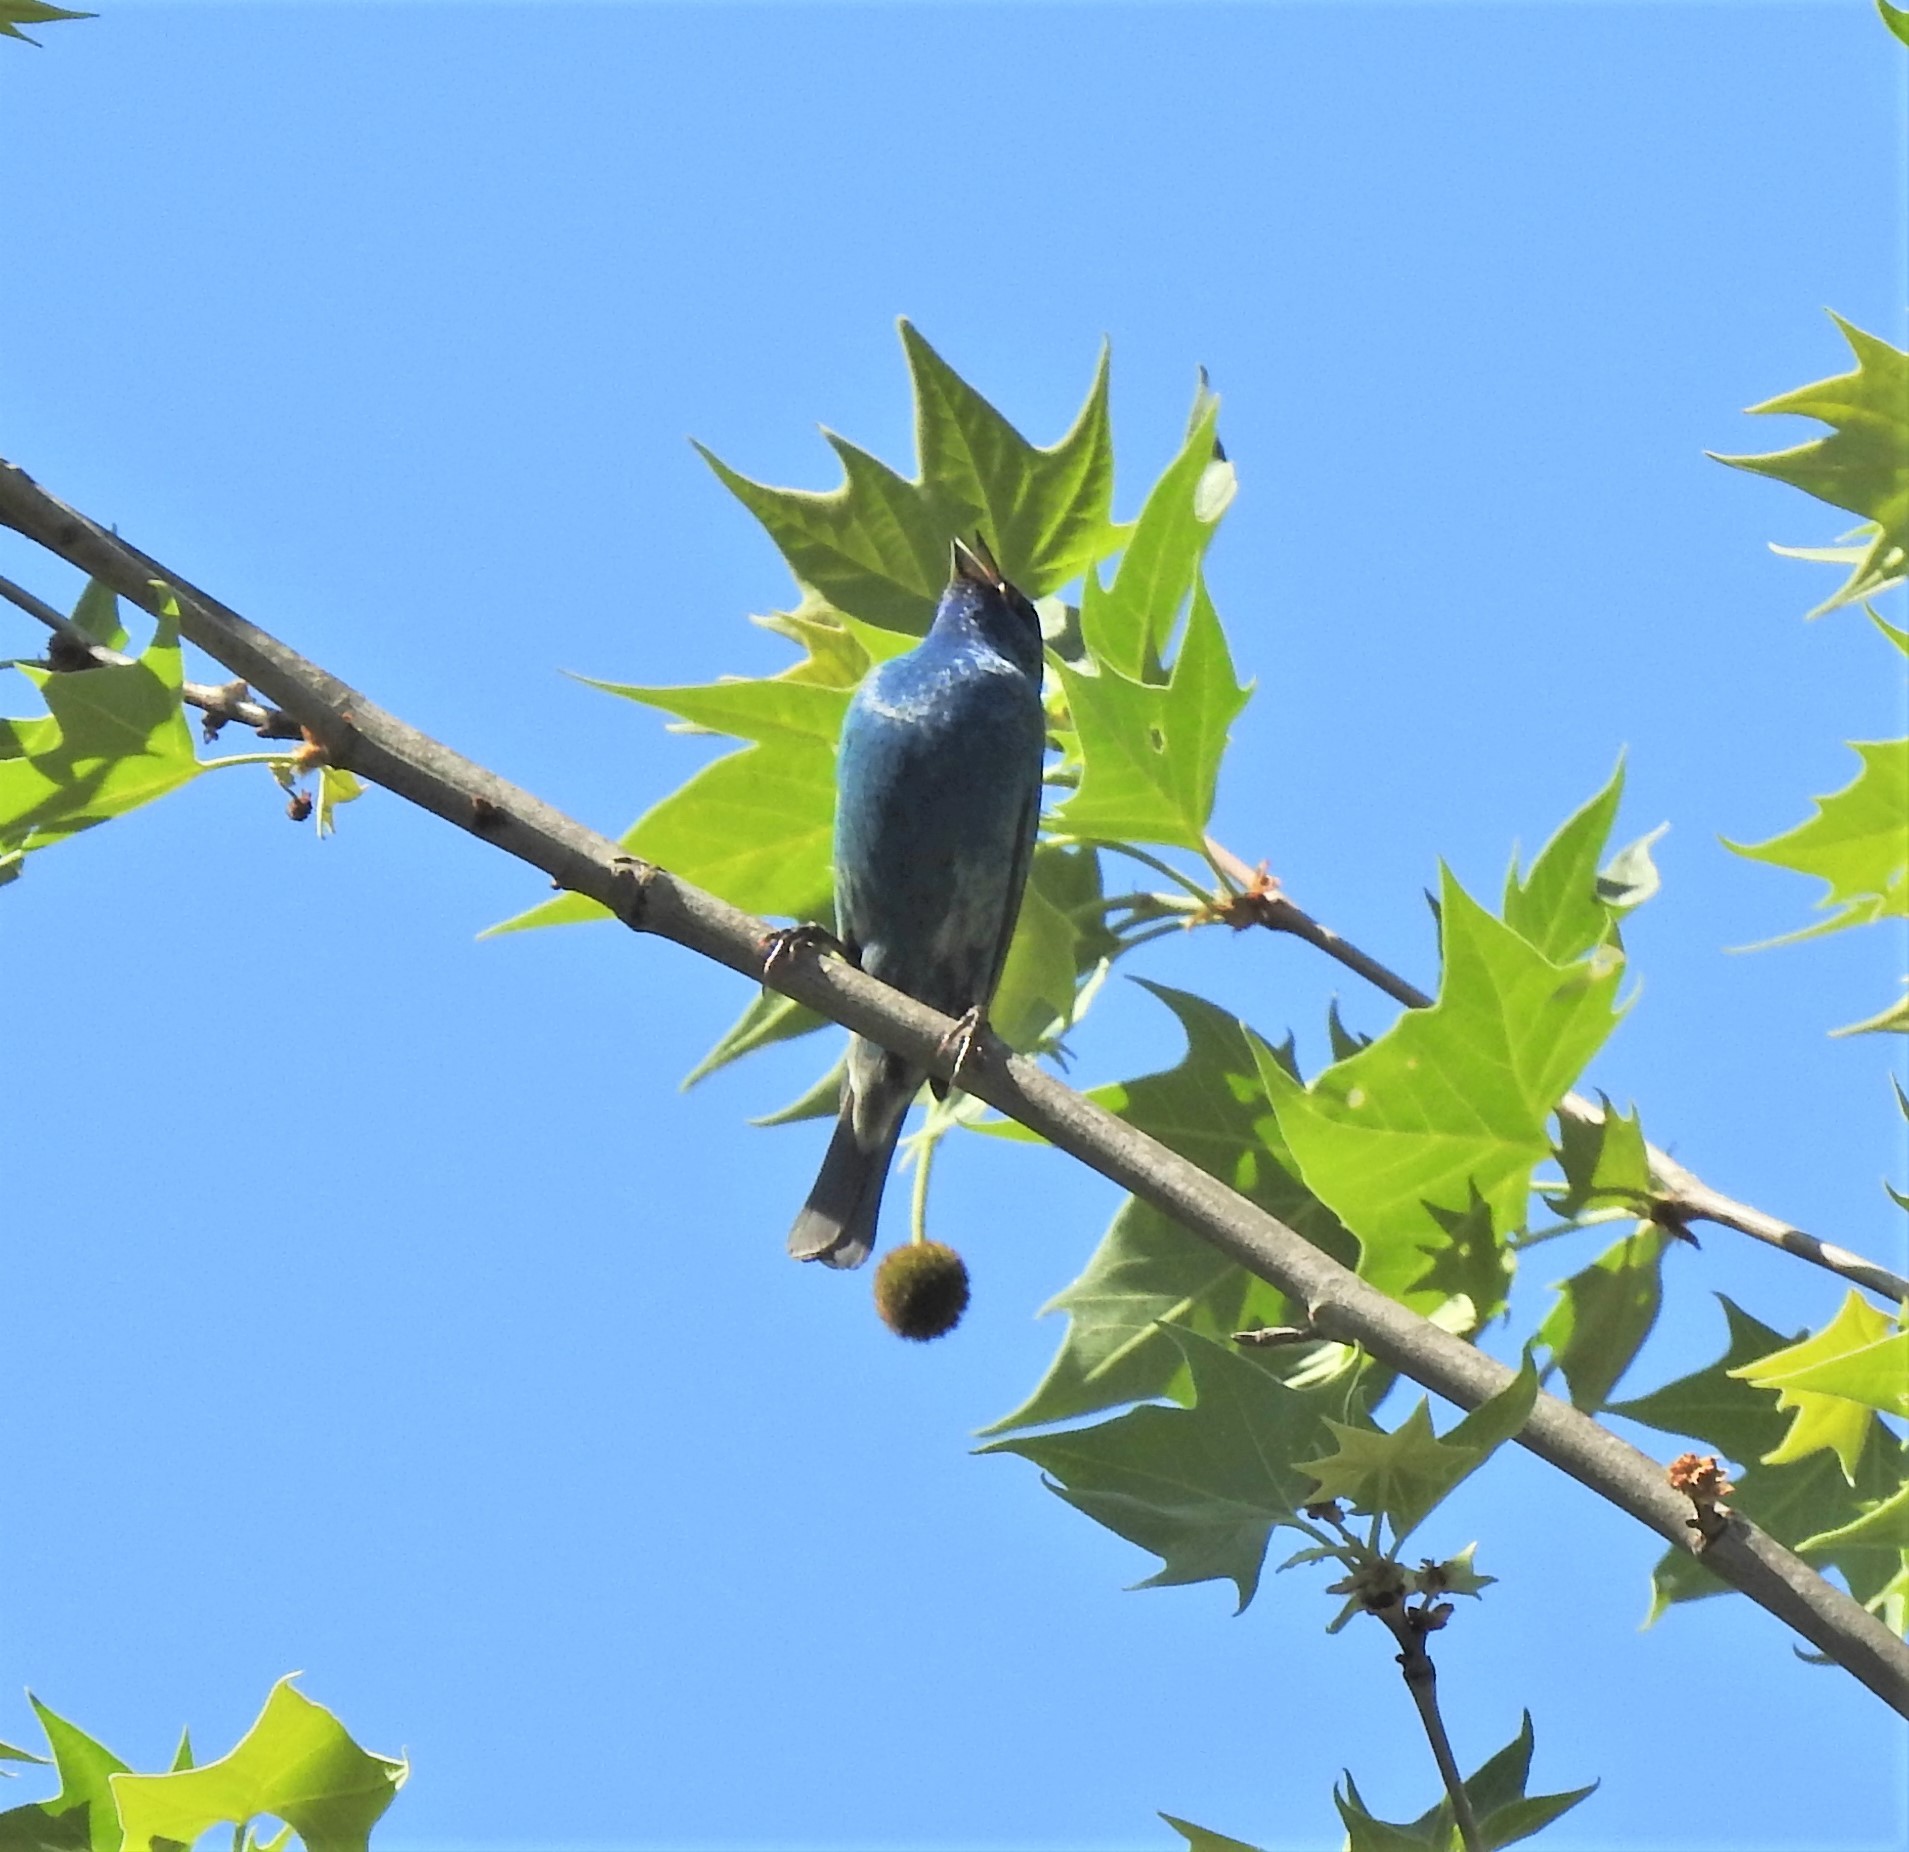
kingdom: Animalia
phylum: Chordata
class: Aves
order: Passeriformes
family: Cardinalidae
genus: Passerina
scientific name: Passerina cyanea
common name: Indigo bunting
